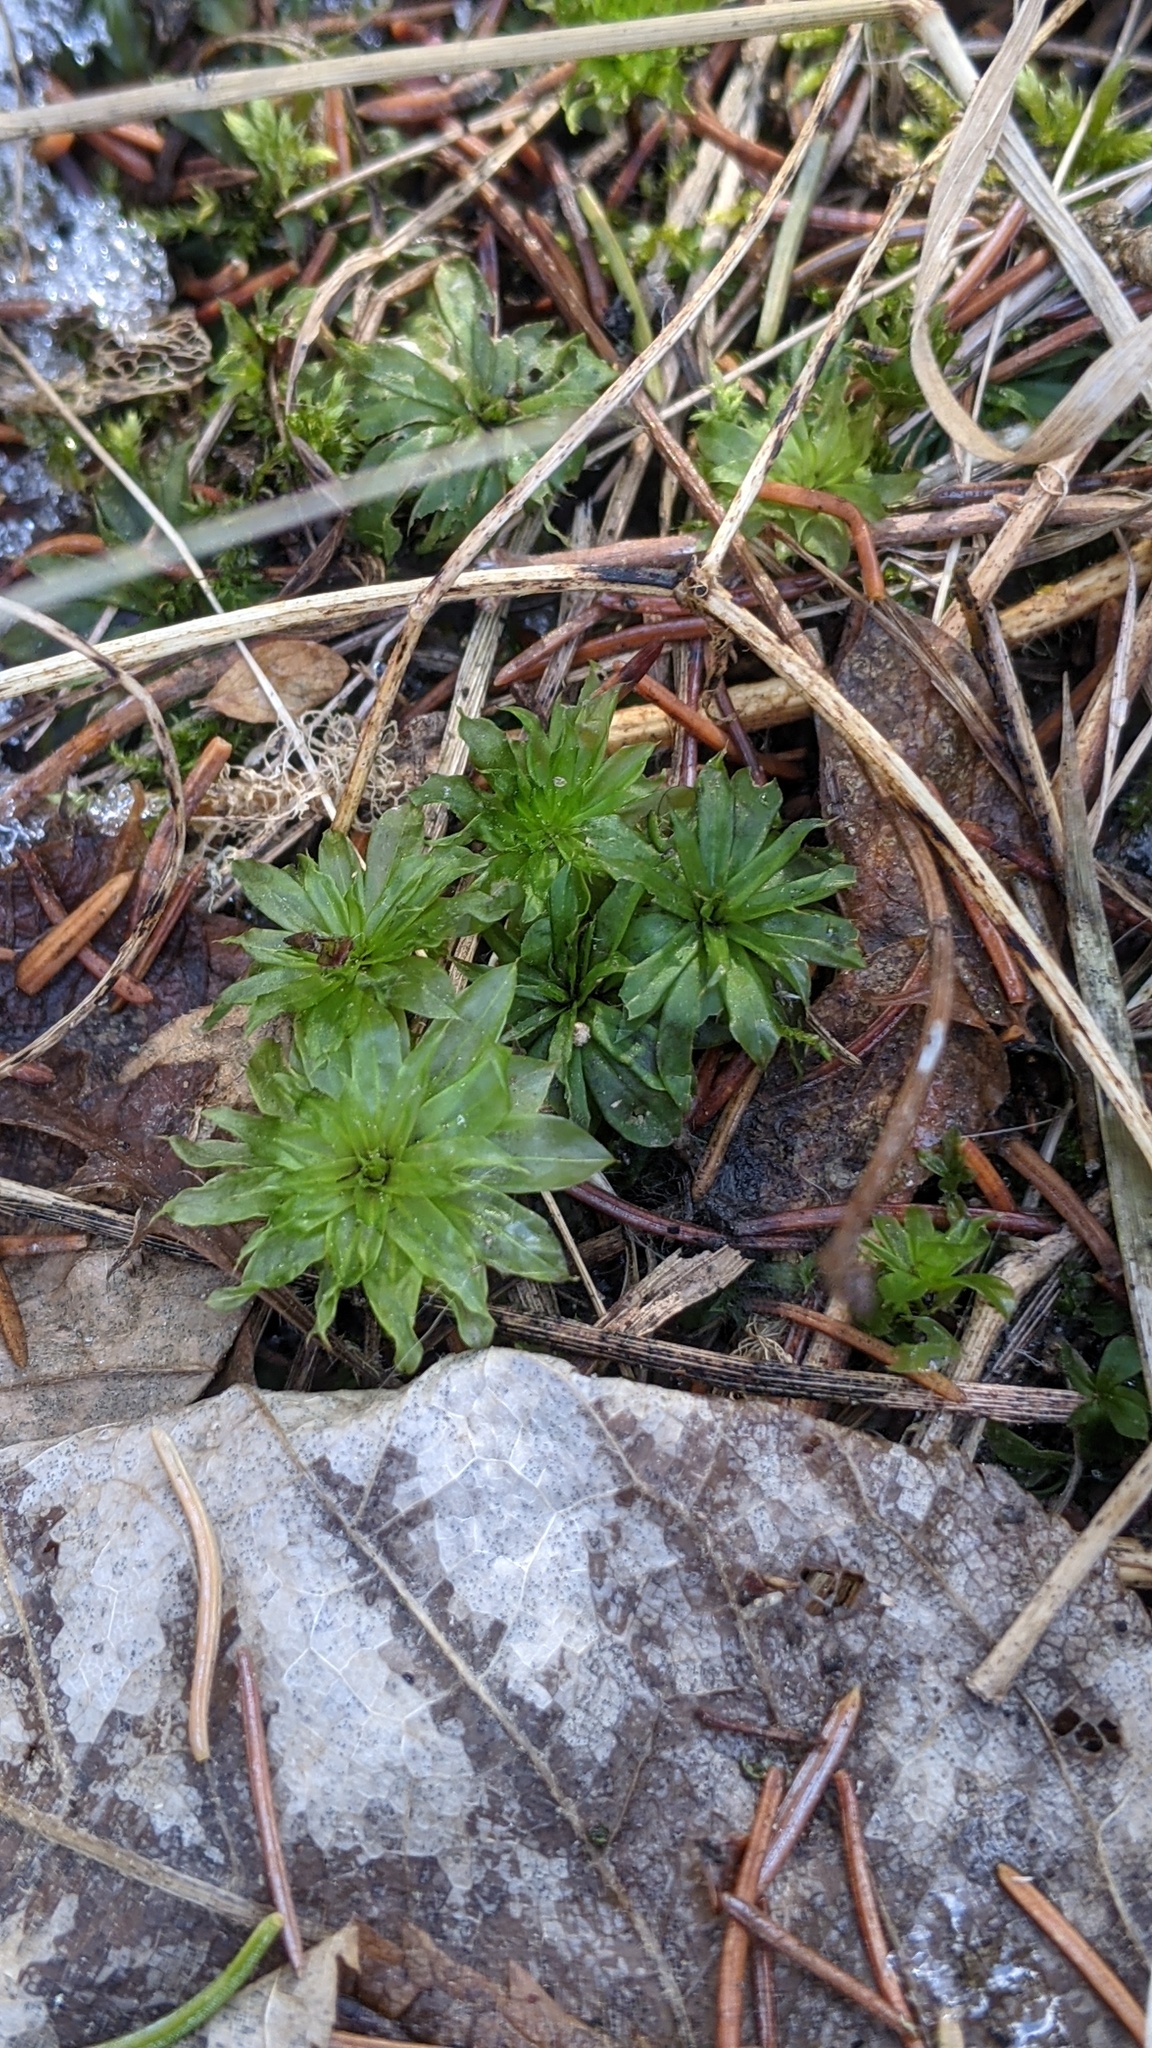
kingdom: Plantae
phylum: Bryophyta
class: Bryopsida
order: Bryales
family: Bryaceae
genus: Rhodobryum
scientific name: Rhodobryum ontariense
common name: Ontario rhodobryum moss
